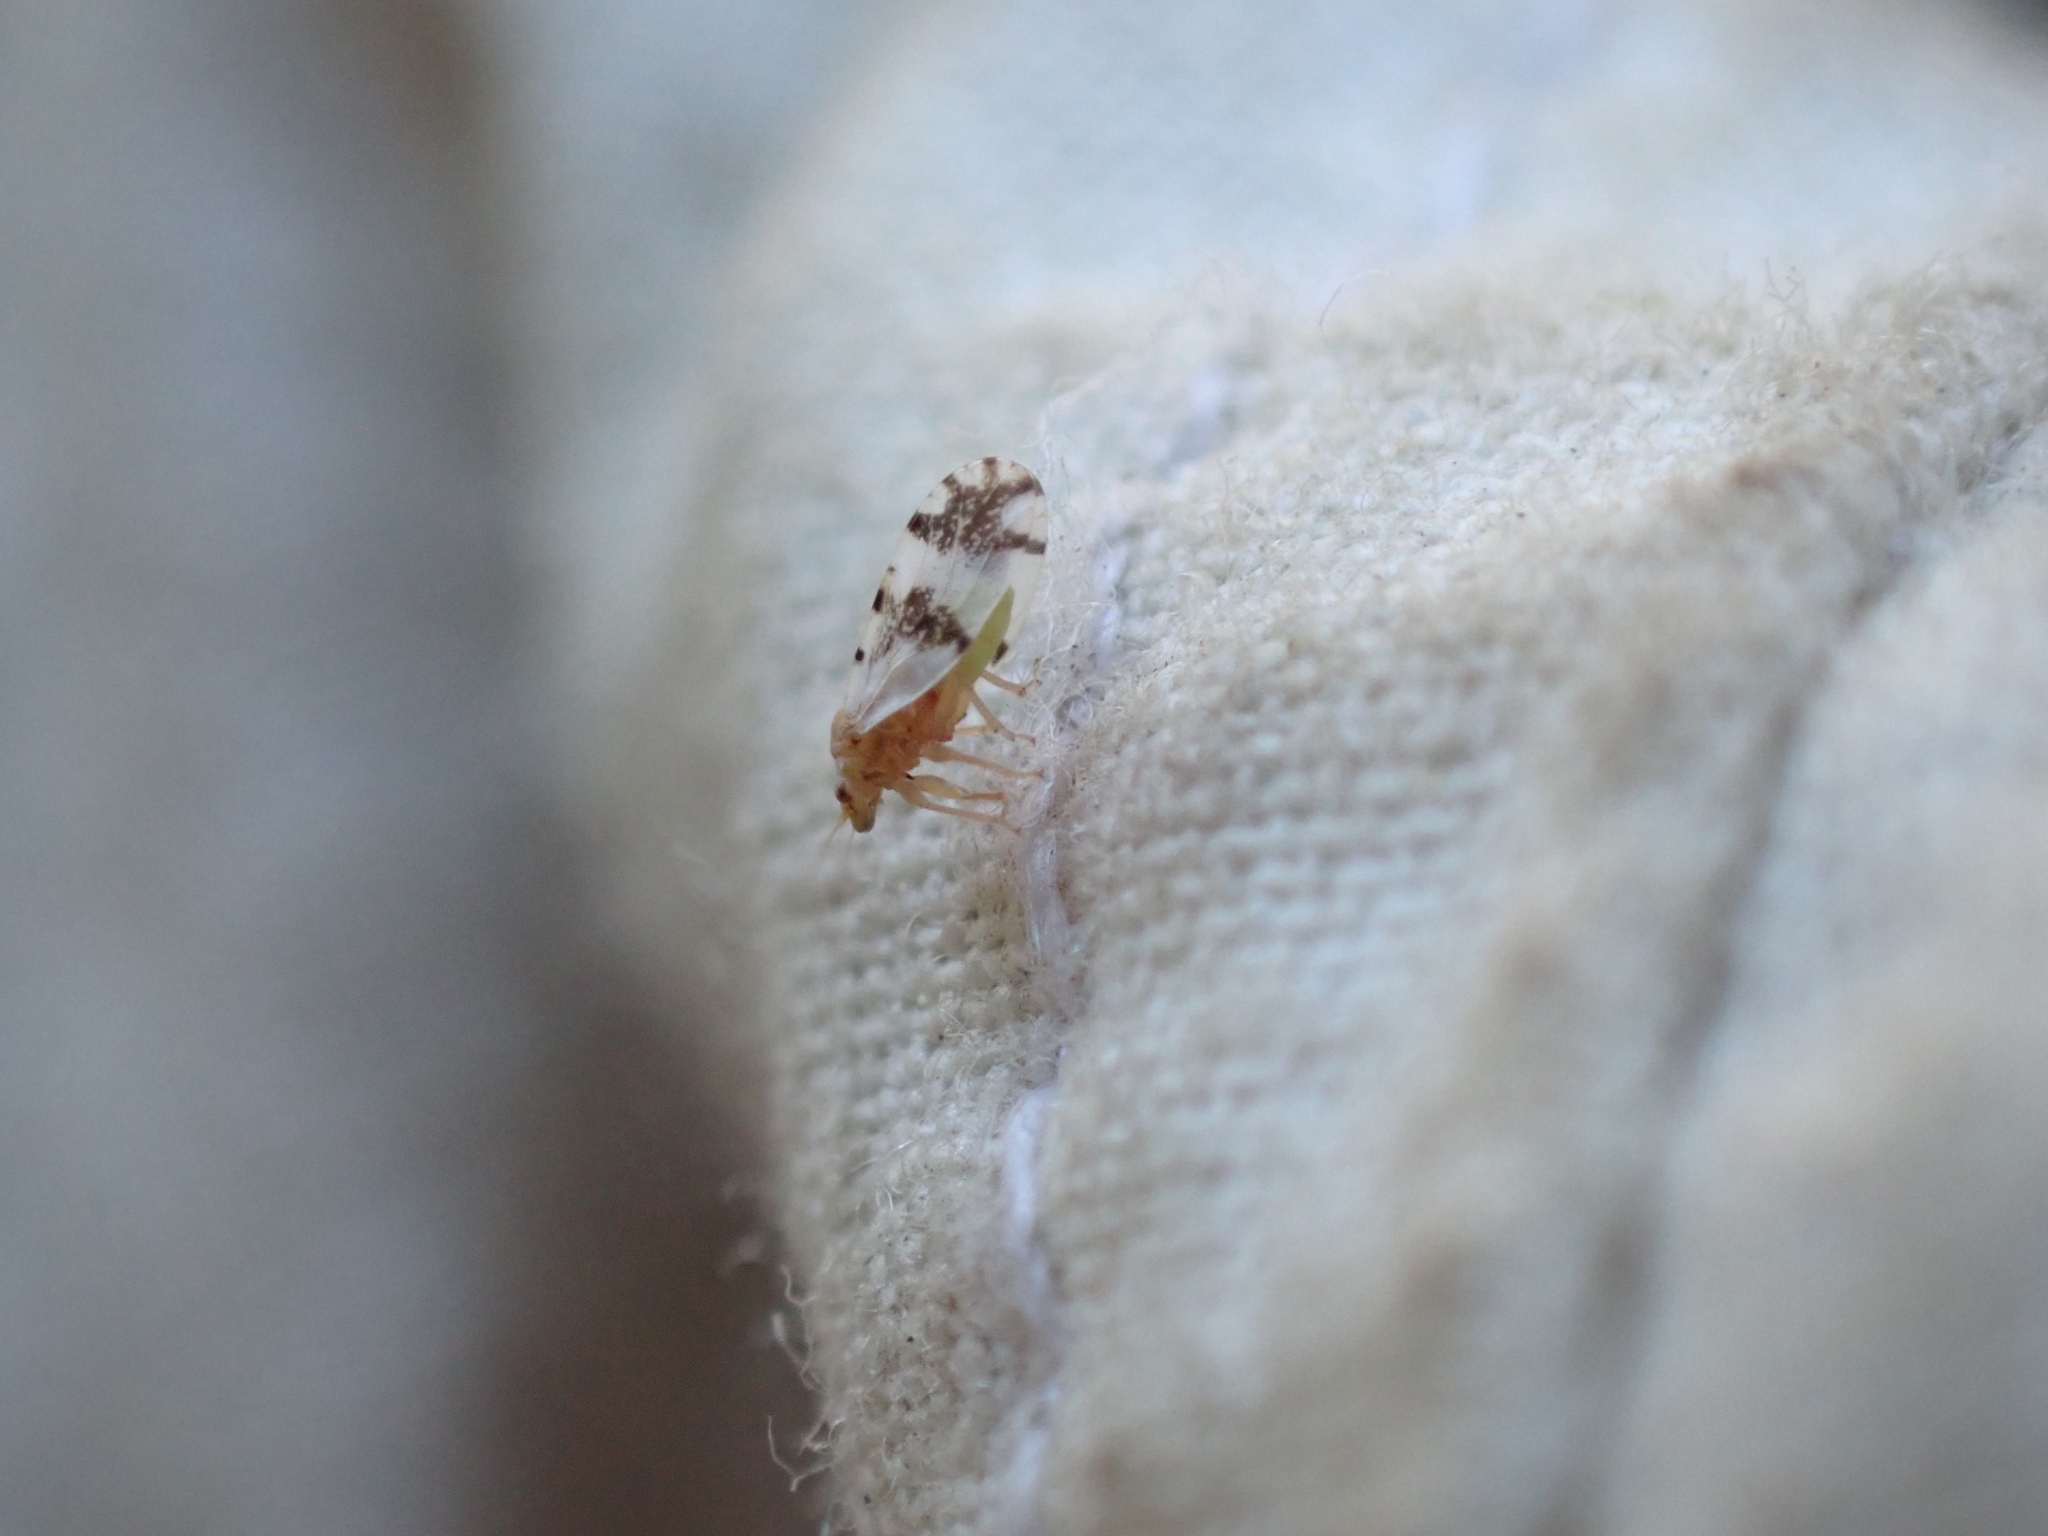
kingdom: Animalia
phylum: Arthropoda
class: Insecta
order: Hemiptera
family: Psyllidae
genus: Euglyptoneura
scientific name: Euglyptoneura robusta
